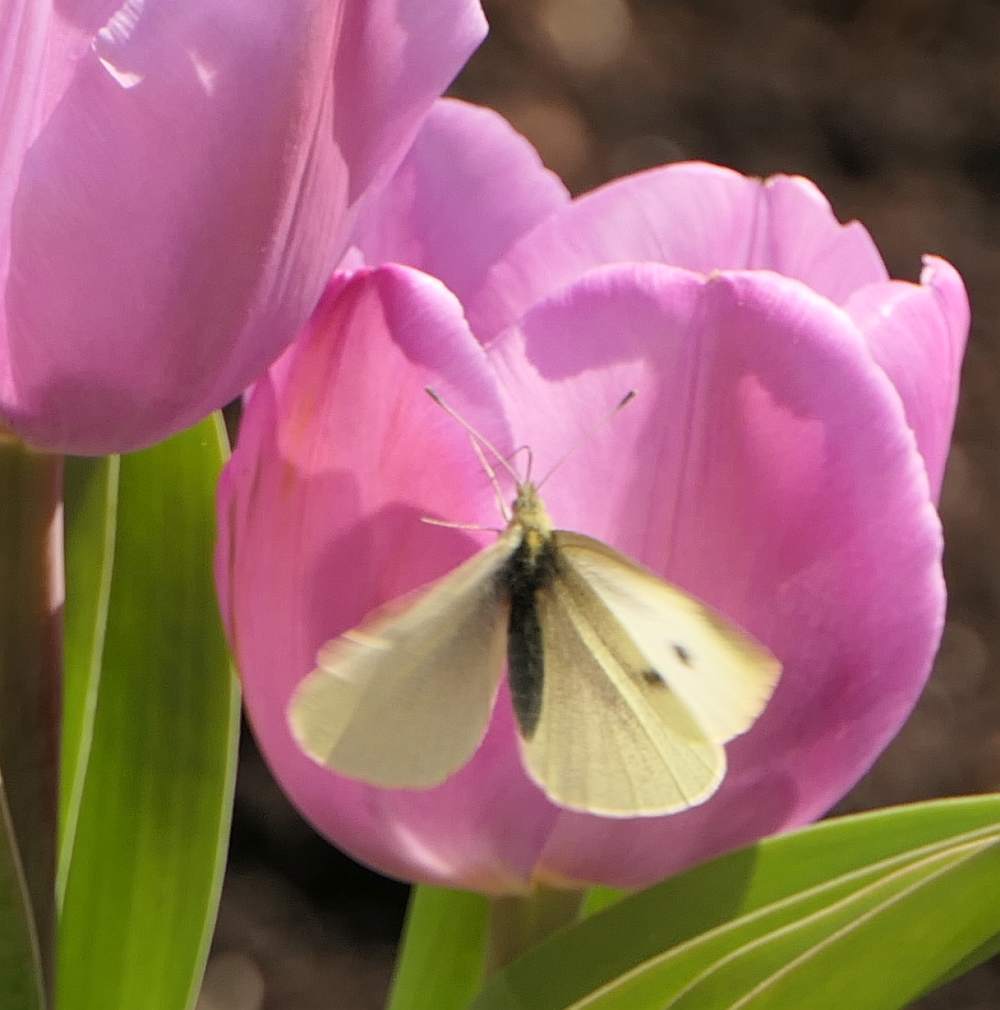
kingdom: Animalia
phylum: Arthropoda
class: Insecta
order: Lepidoptera
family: Pieridae
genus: Pieris
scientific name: Pieris rapae
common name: Small white
